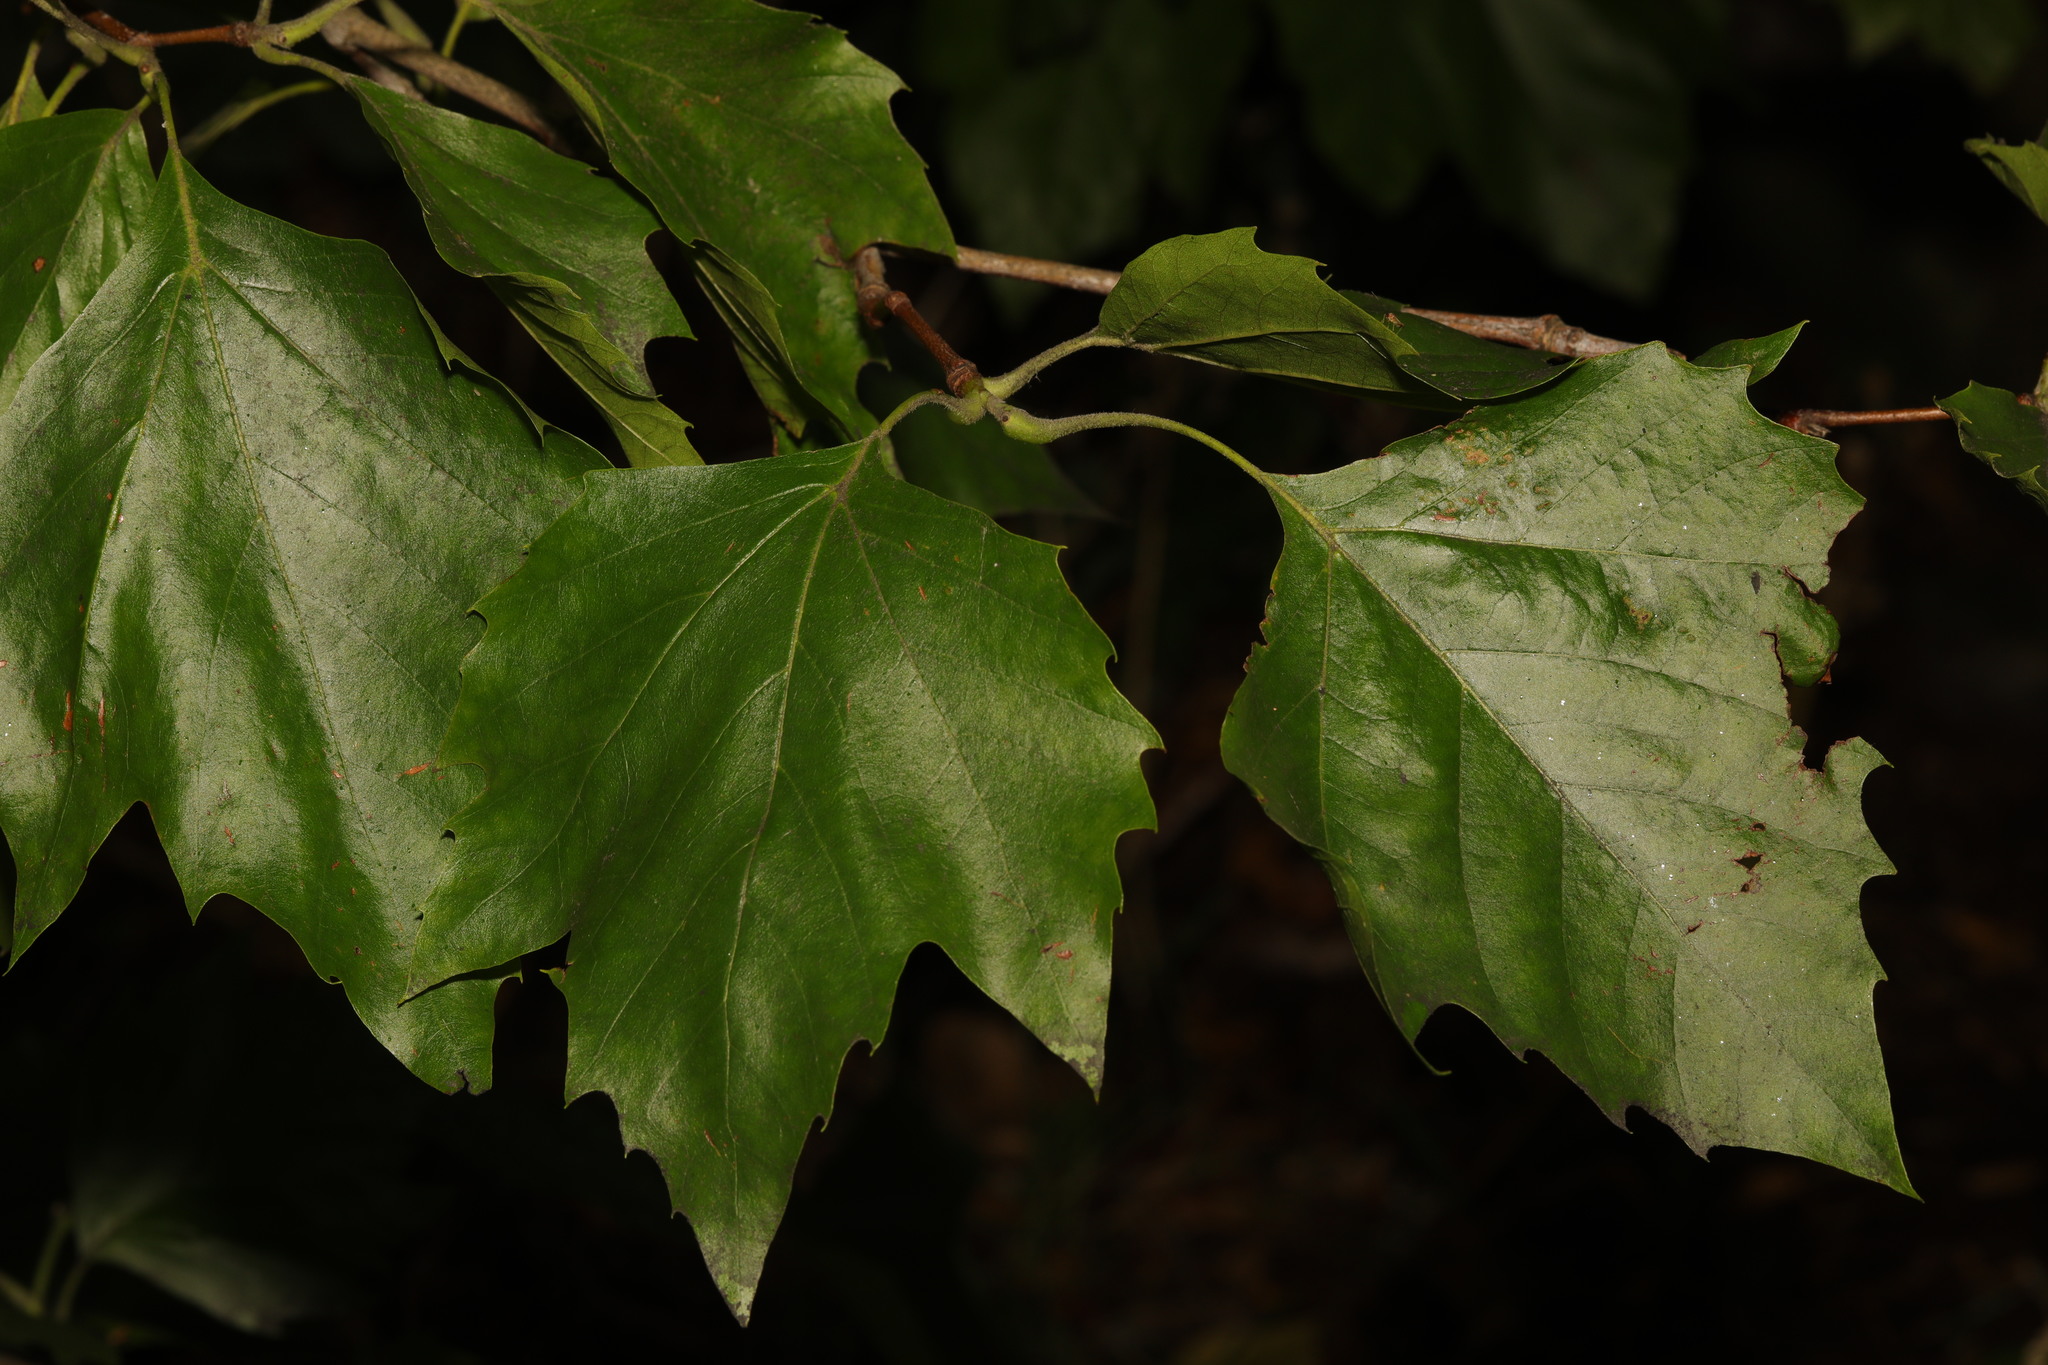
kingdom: Plantae
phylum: Tracheophyta
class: Magnoliopsida
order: Proteales
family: Platanaceae
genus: Platanus
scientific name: Platanus hispanica
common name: London plane
